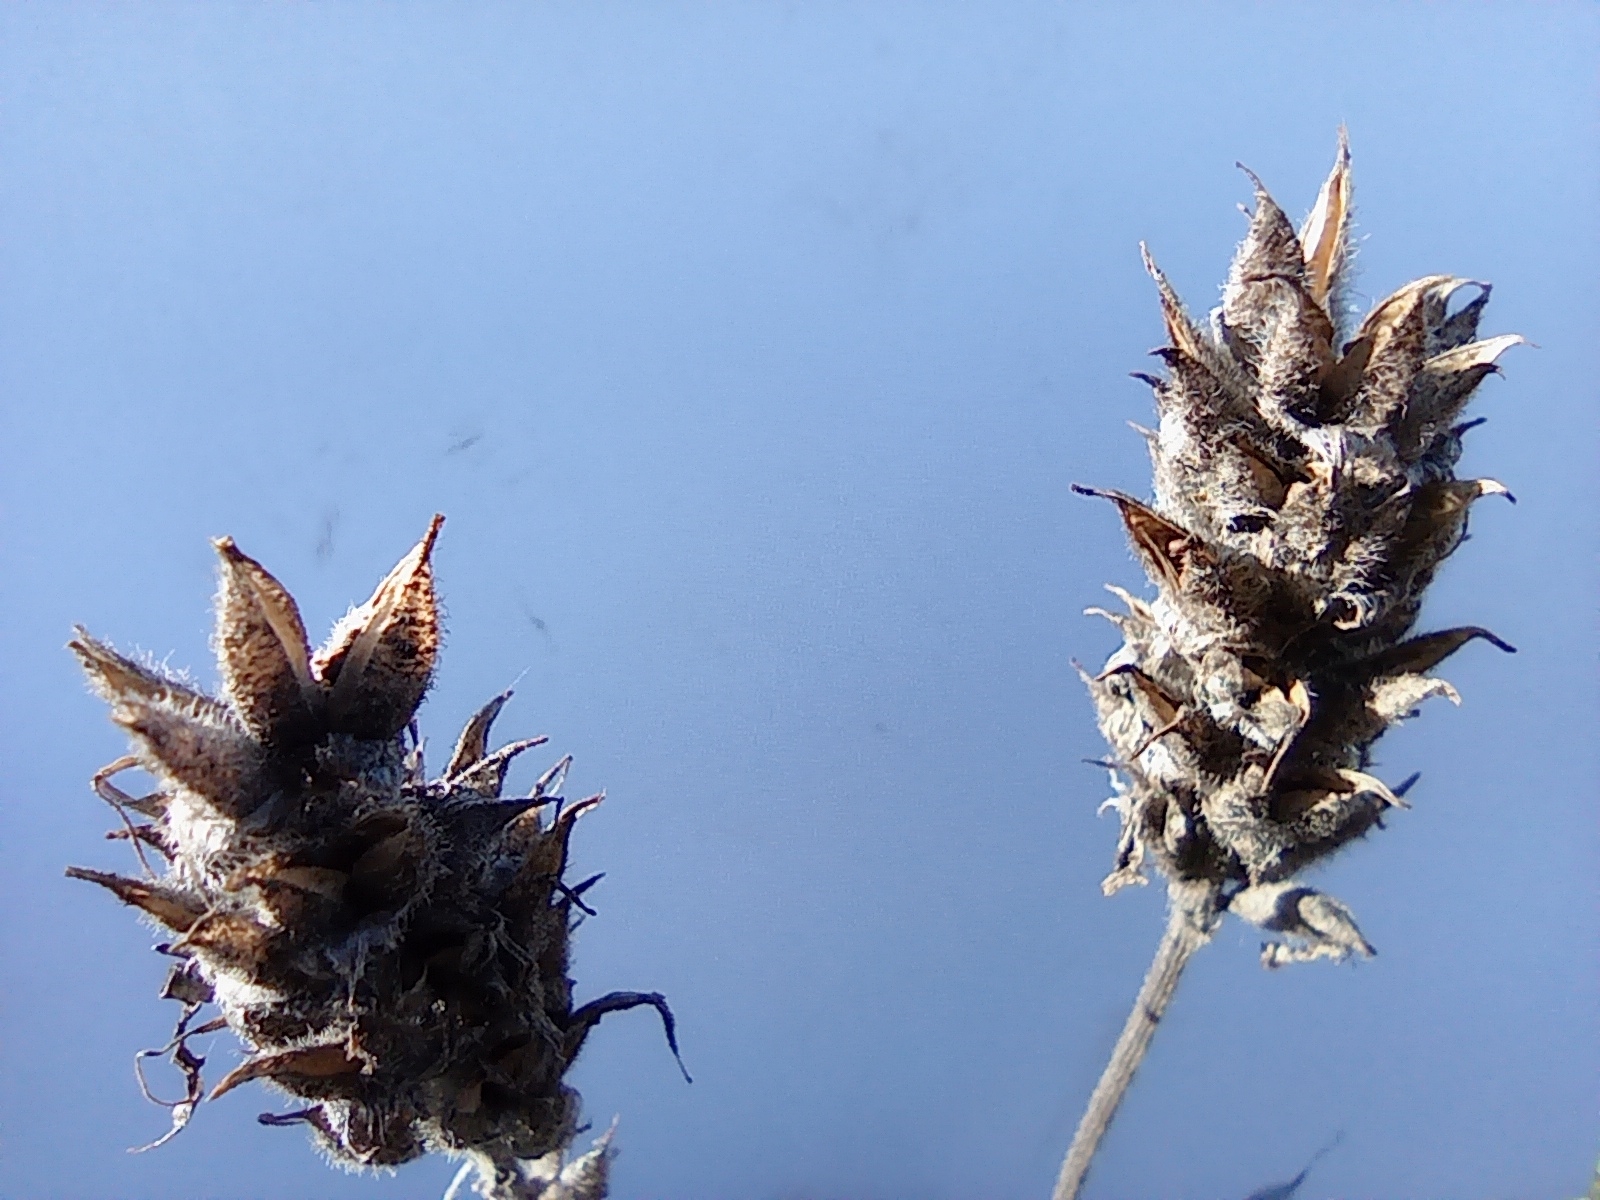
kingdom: Plantae
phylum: Tracheophyta
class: Magnoliopsida
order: Fabales
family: Fabaceae
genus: Astragalus
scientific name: Astragalus onobrychis
